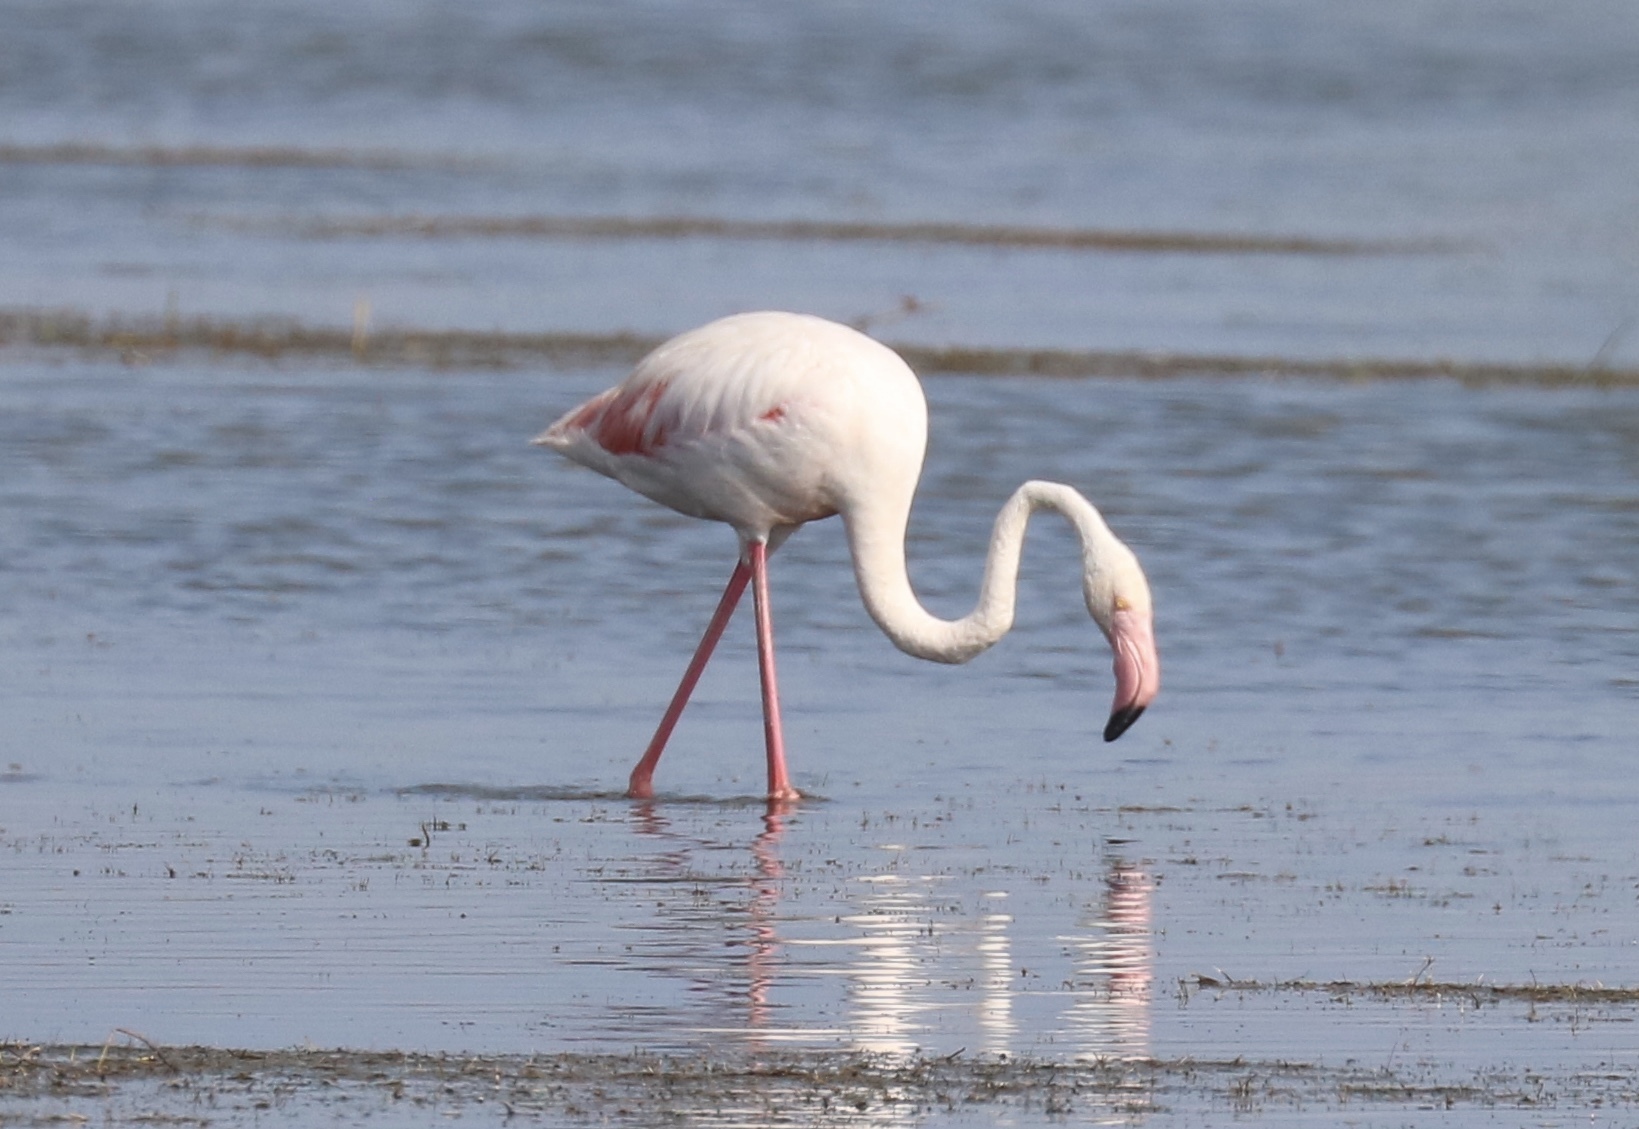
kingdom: Animalia
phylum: Chordata
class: Aves
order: Phoenicopteriformes
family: Phoenicopteridae
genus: Phoenicopterus
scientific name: Phoenicopterus roseus
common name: Greater flamingo
